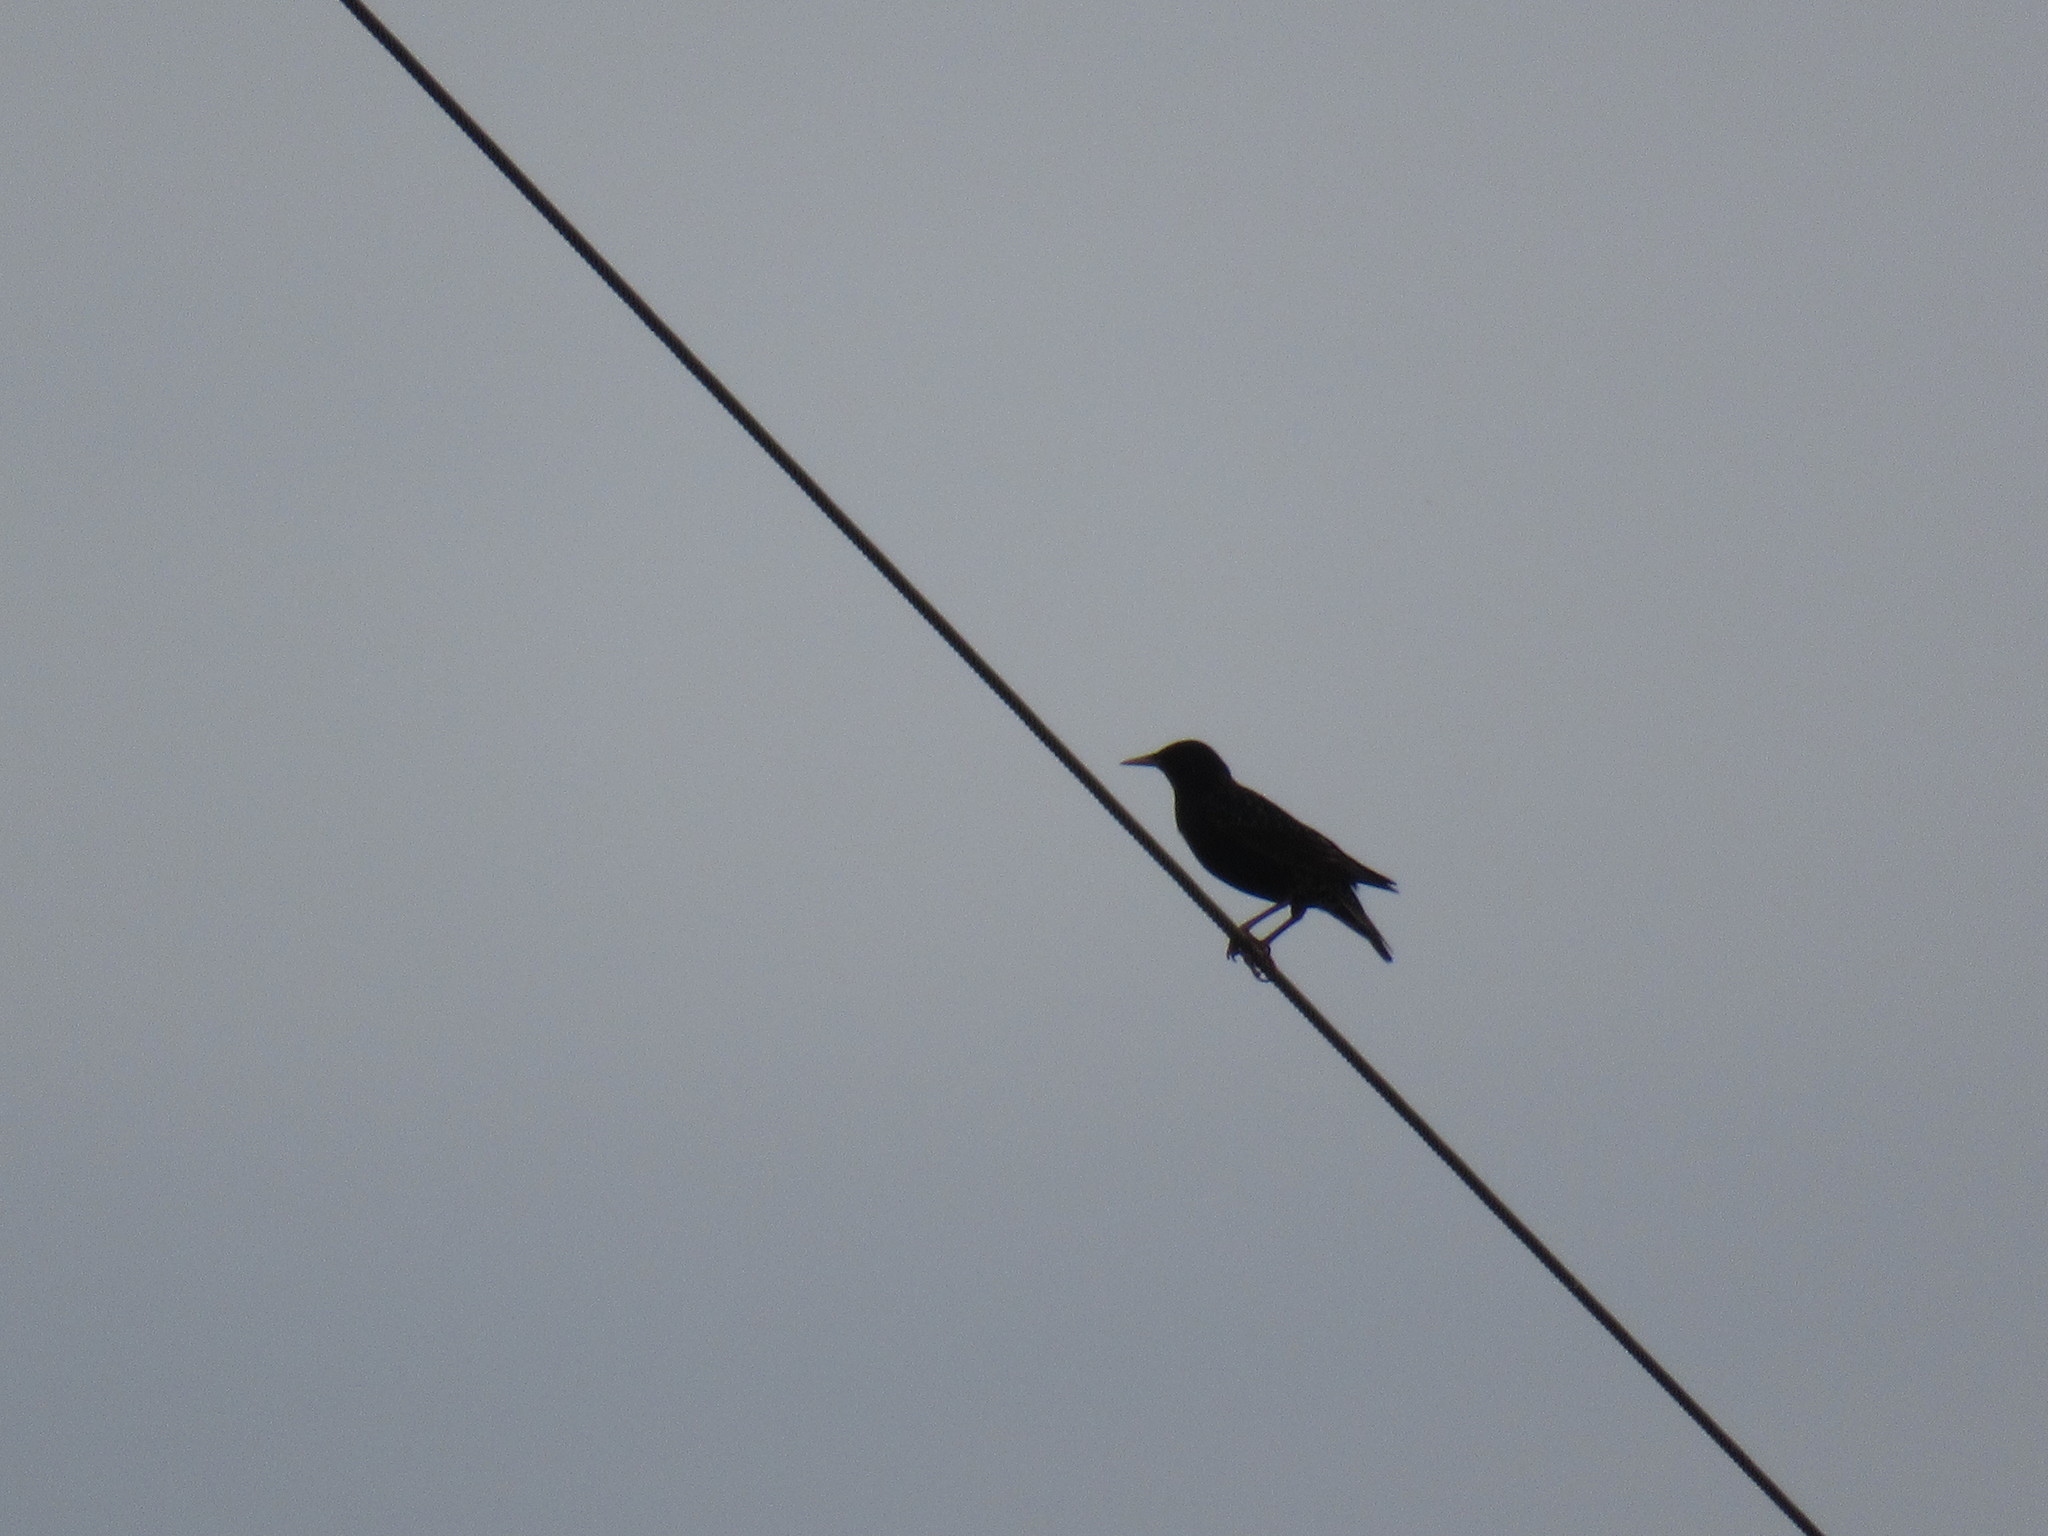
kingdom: Animalia
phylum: Chordata
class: Aves
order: Passeriformes
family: Sturnidae
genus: Sturnus
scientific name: Sturnus vulgaris
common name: Common starling
